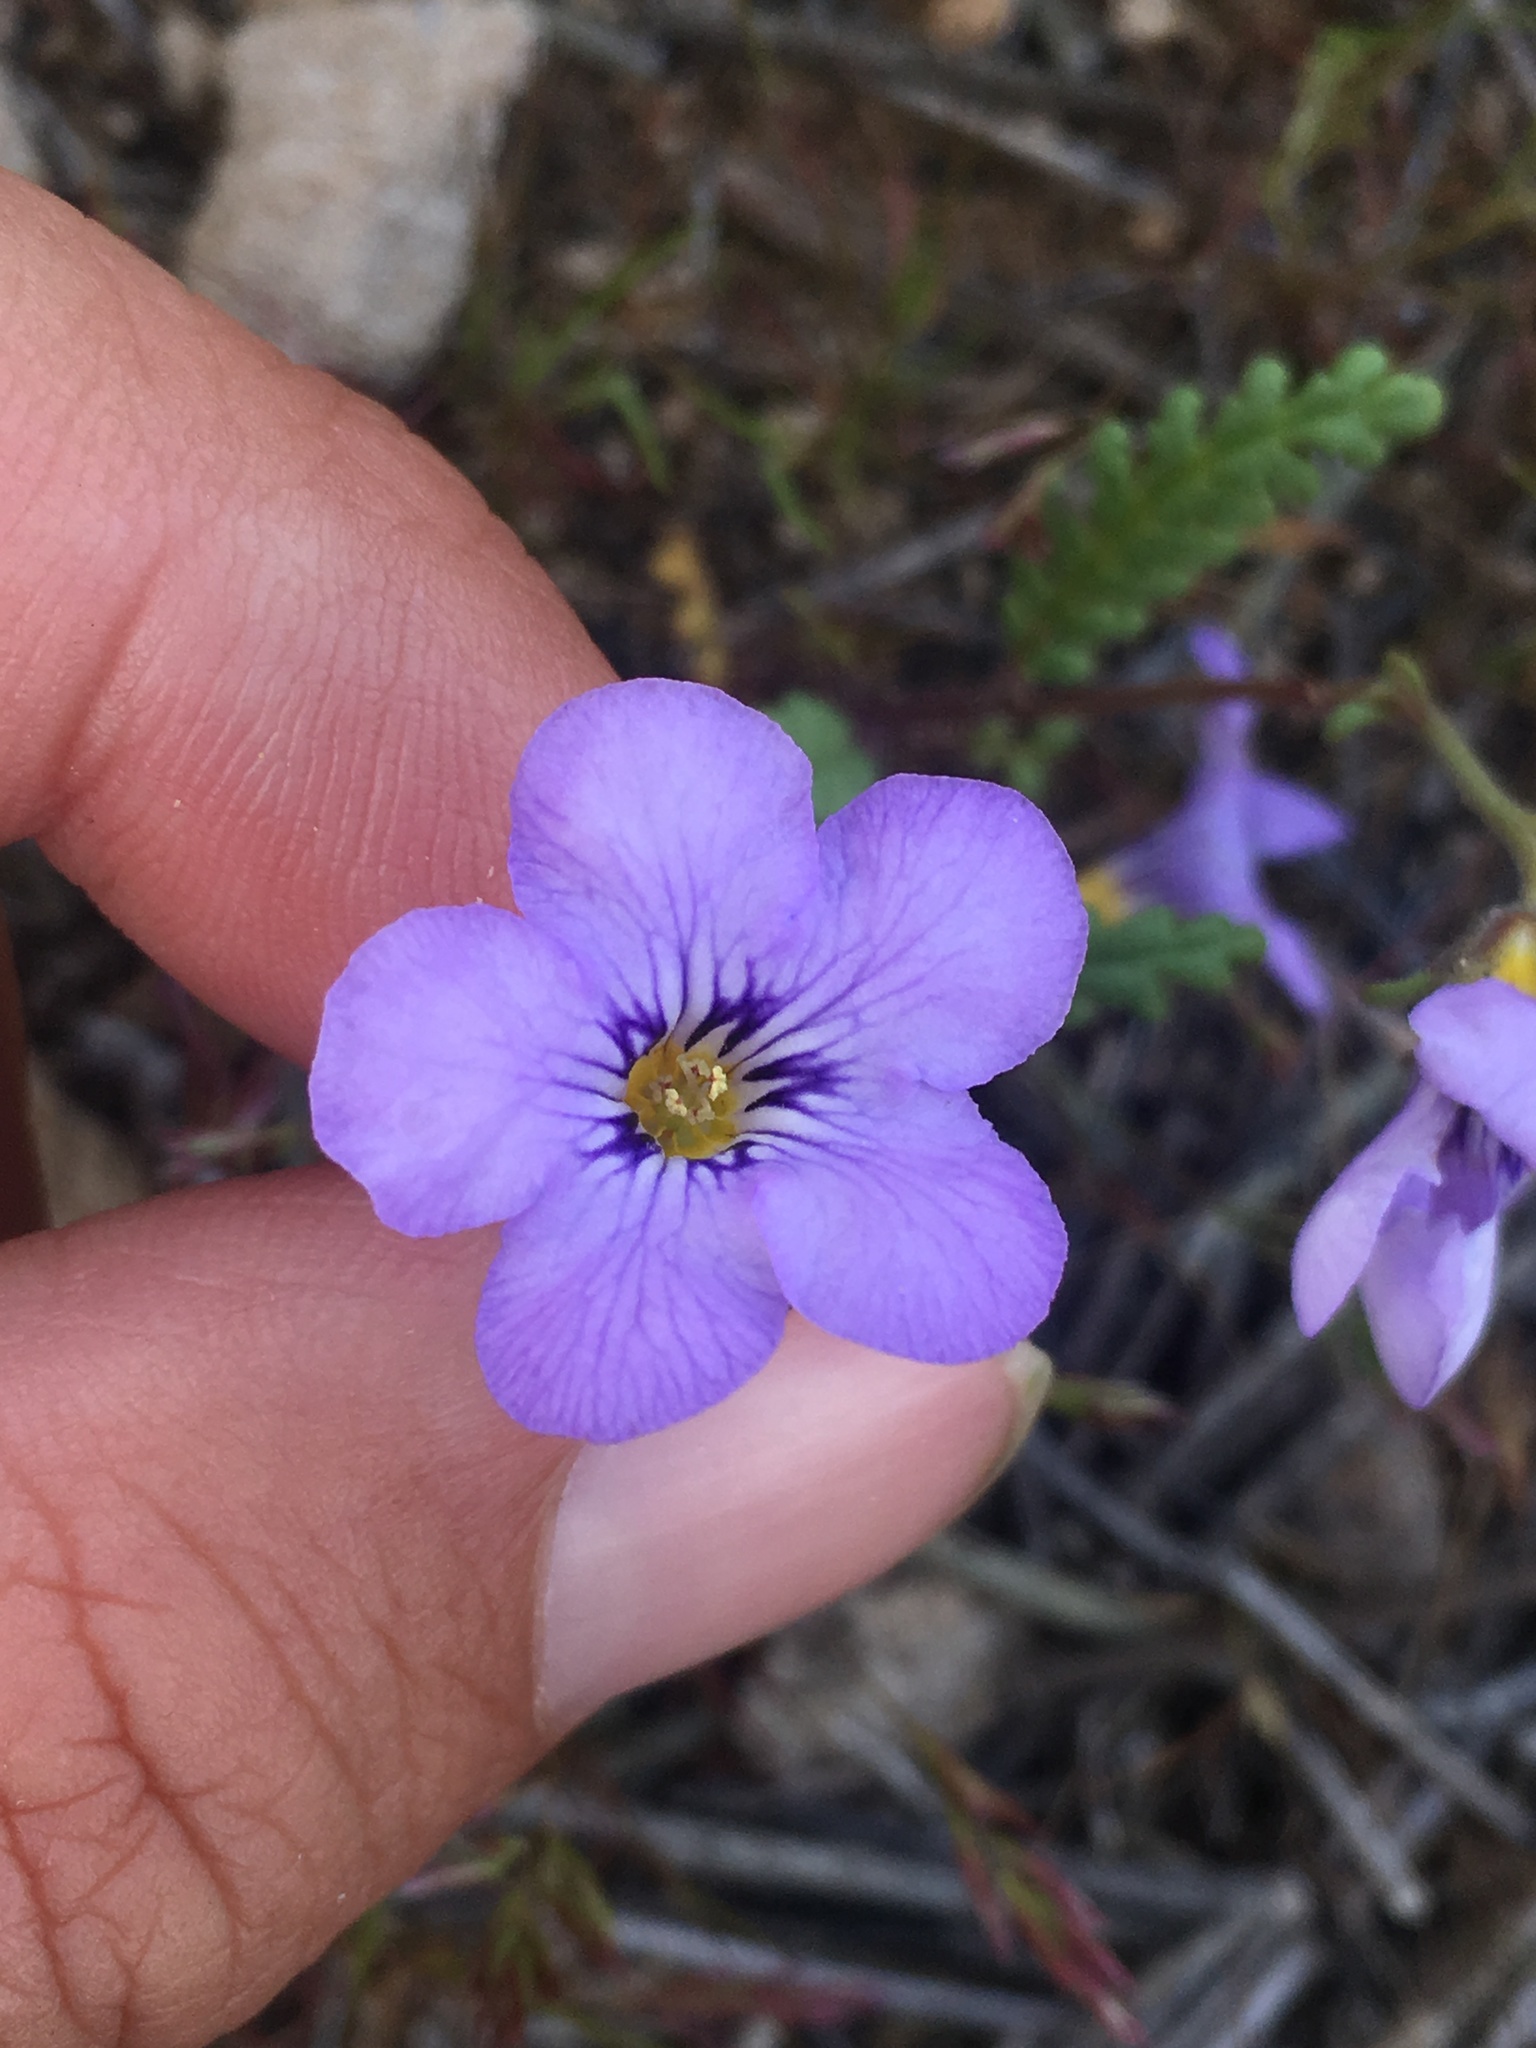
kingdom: Plantae
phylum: Tracheophyta
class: Magnoliopsida
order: Boraginales
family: Hydrophyllaceae
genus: Phacelia
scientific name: Phacelia fremontii
